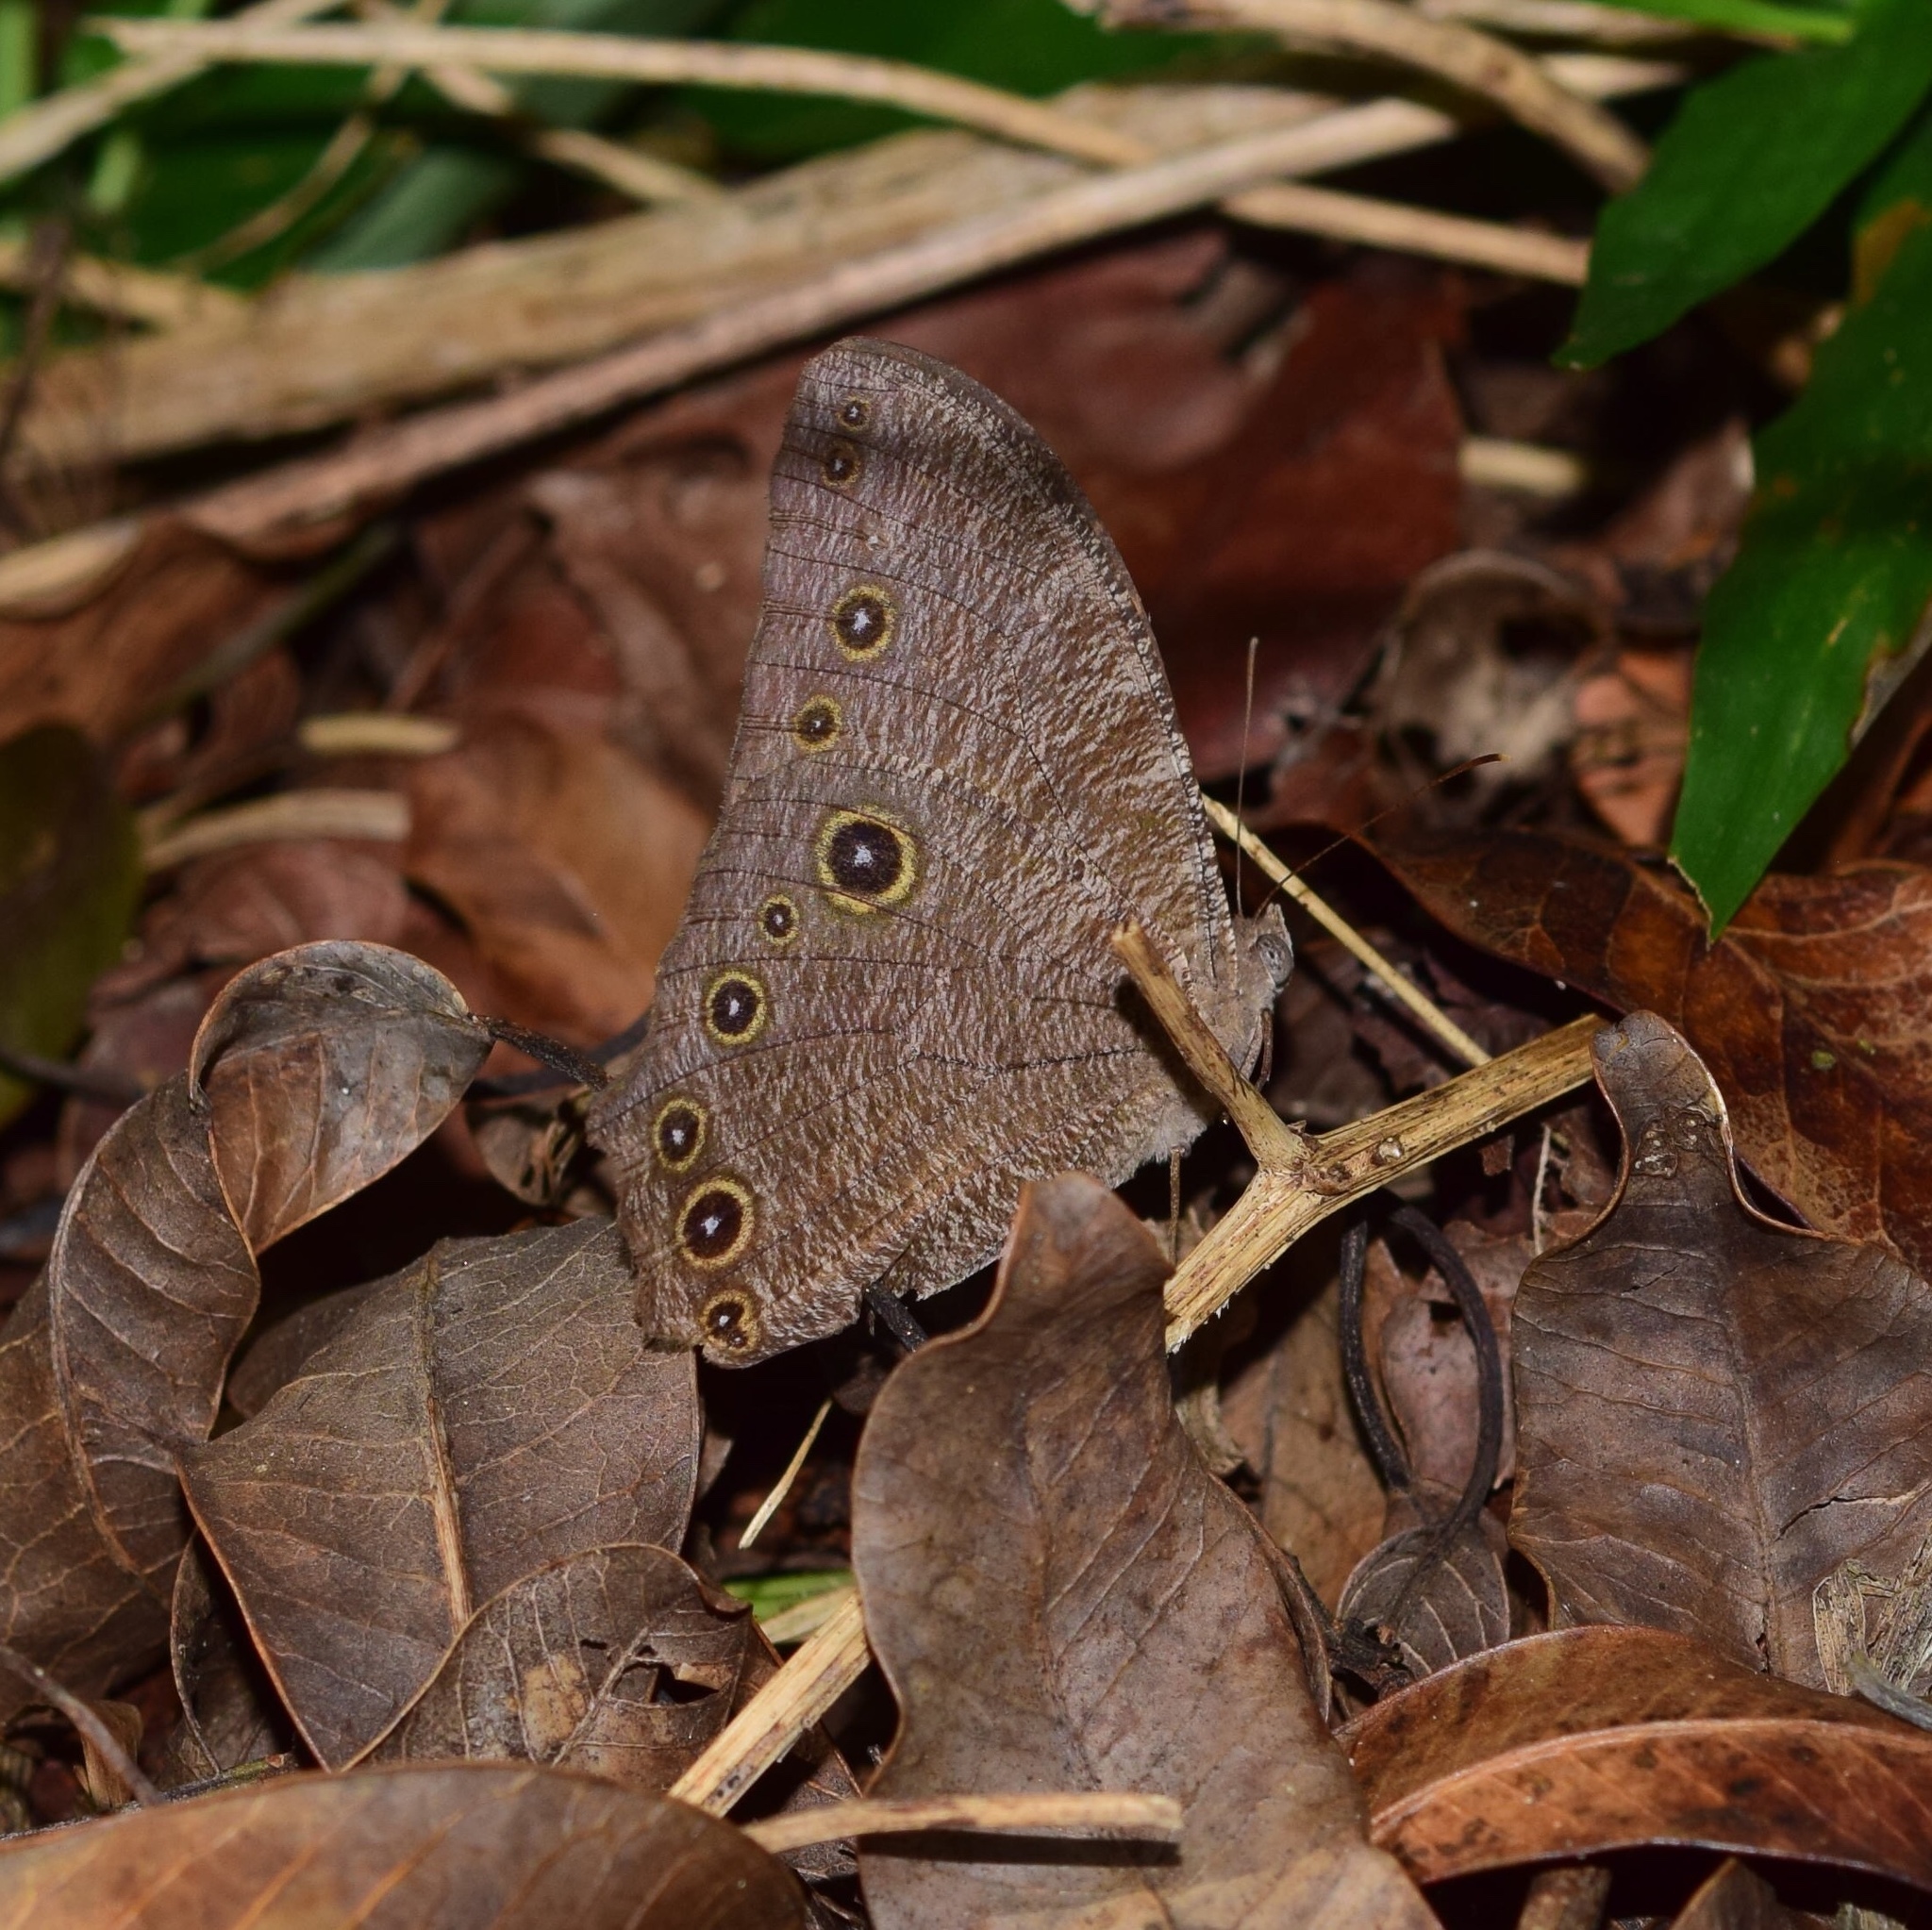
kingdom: Animalia
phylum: Arthropoda
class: Insecta
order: Lepidoptera
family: Nymphalidae
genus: Melanitis
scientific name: Melanitis leda
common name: Twilight brown
